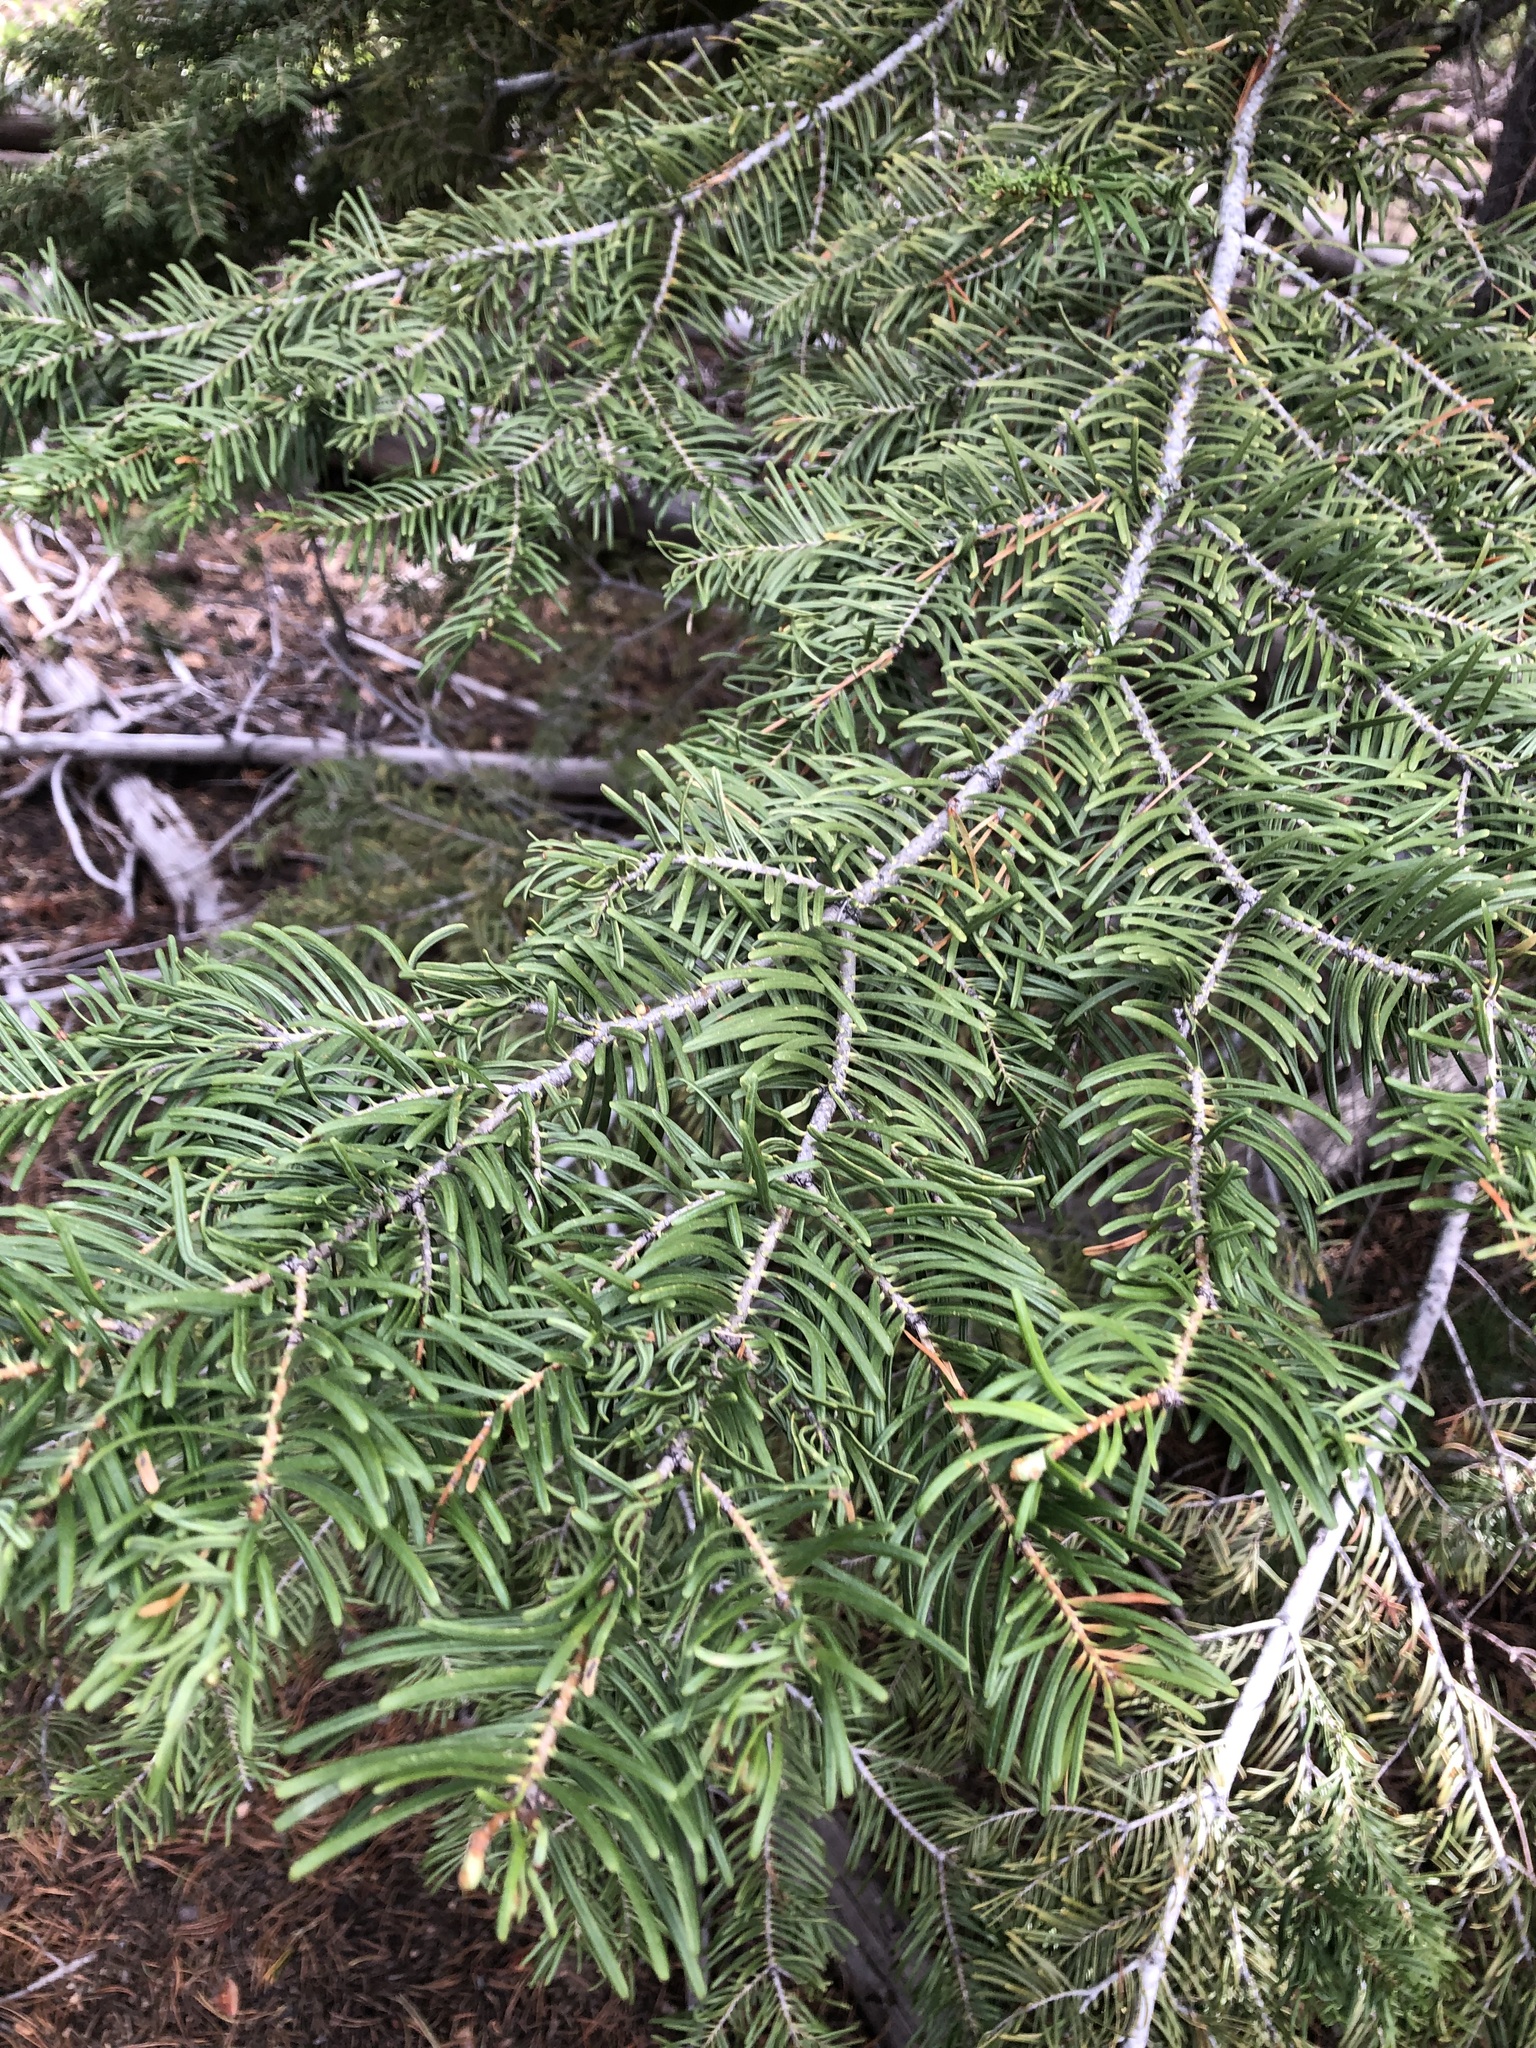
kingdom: Plantae
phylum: Tracheophyta
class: Pinopsida
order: Pinales
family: Pinaceae
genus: Abies
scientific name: Abies concolor
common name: Colorado fir
